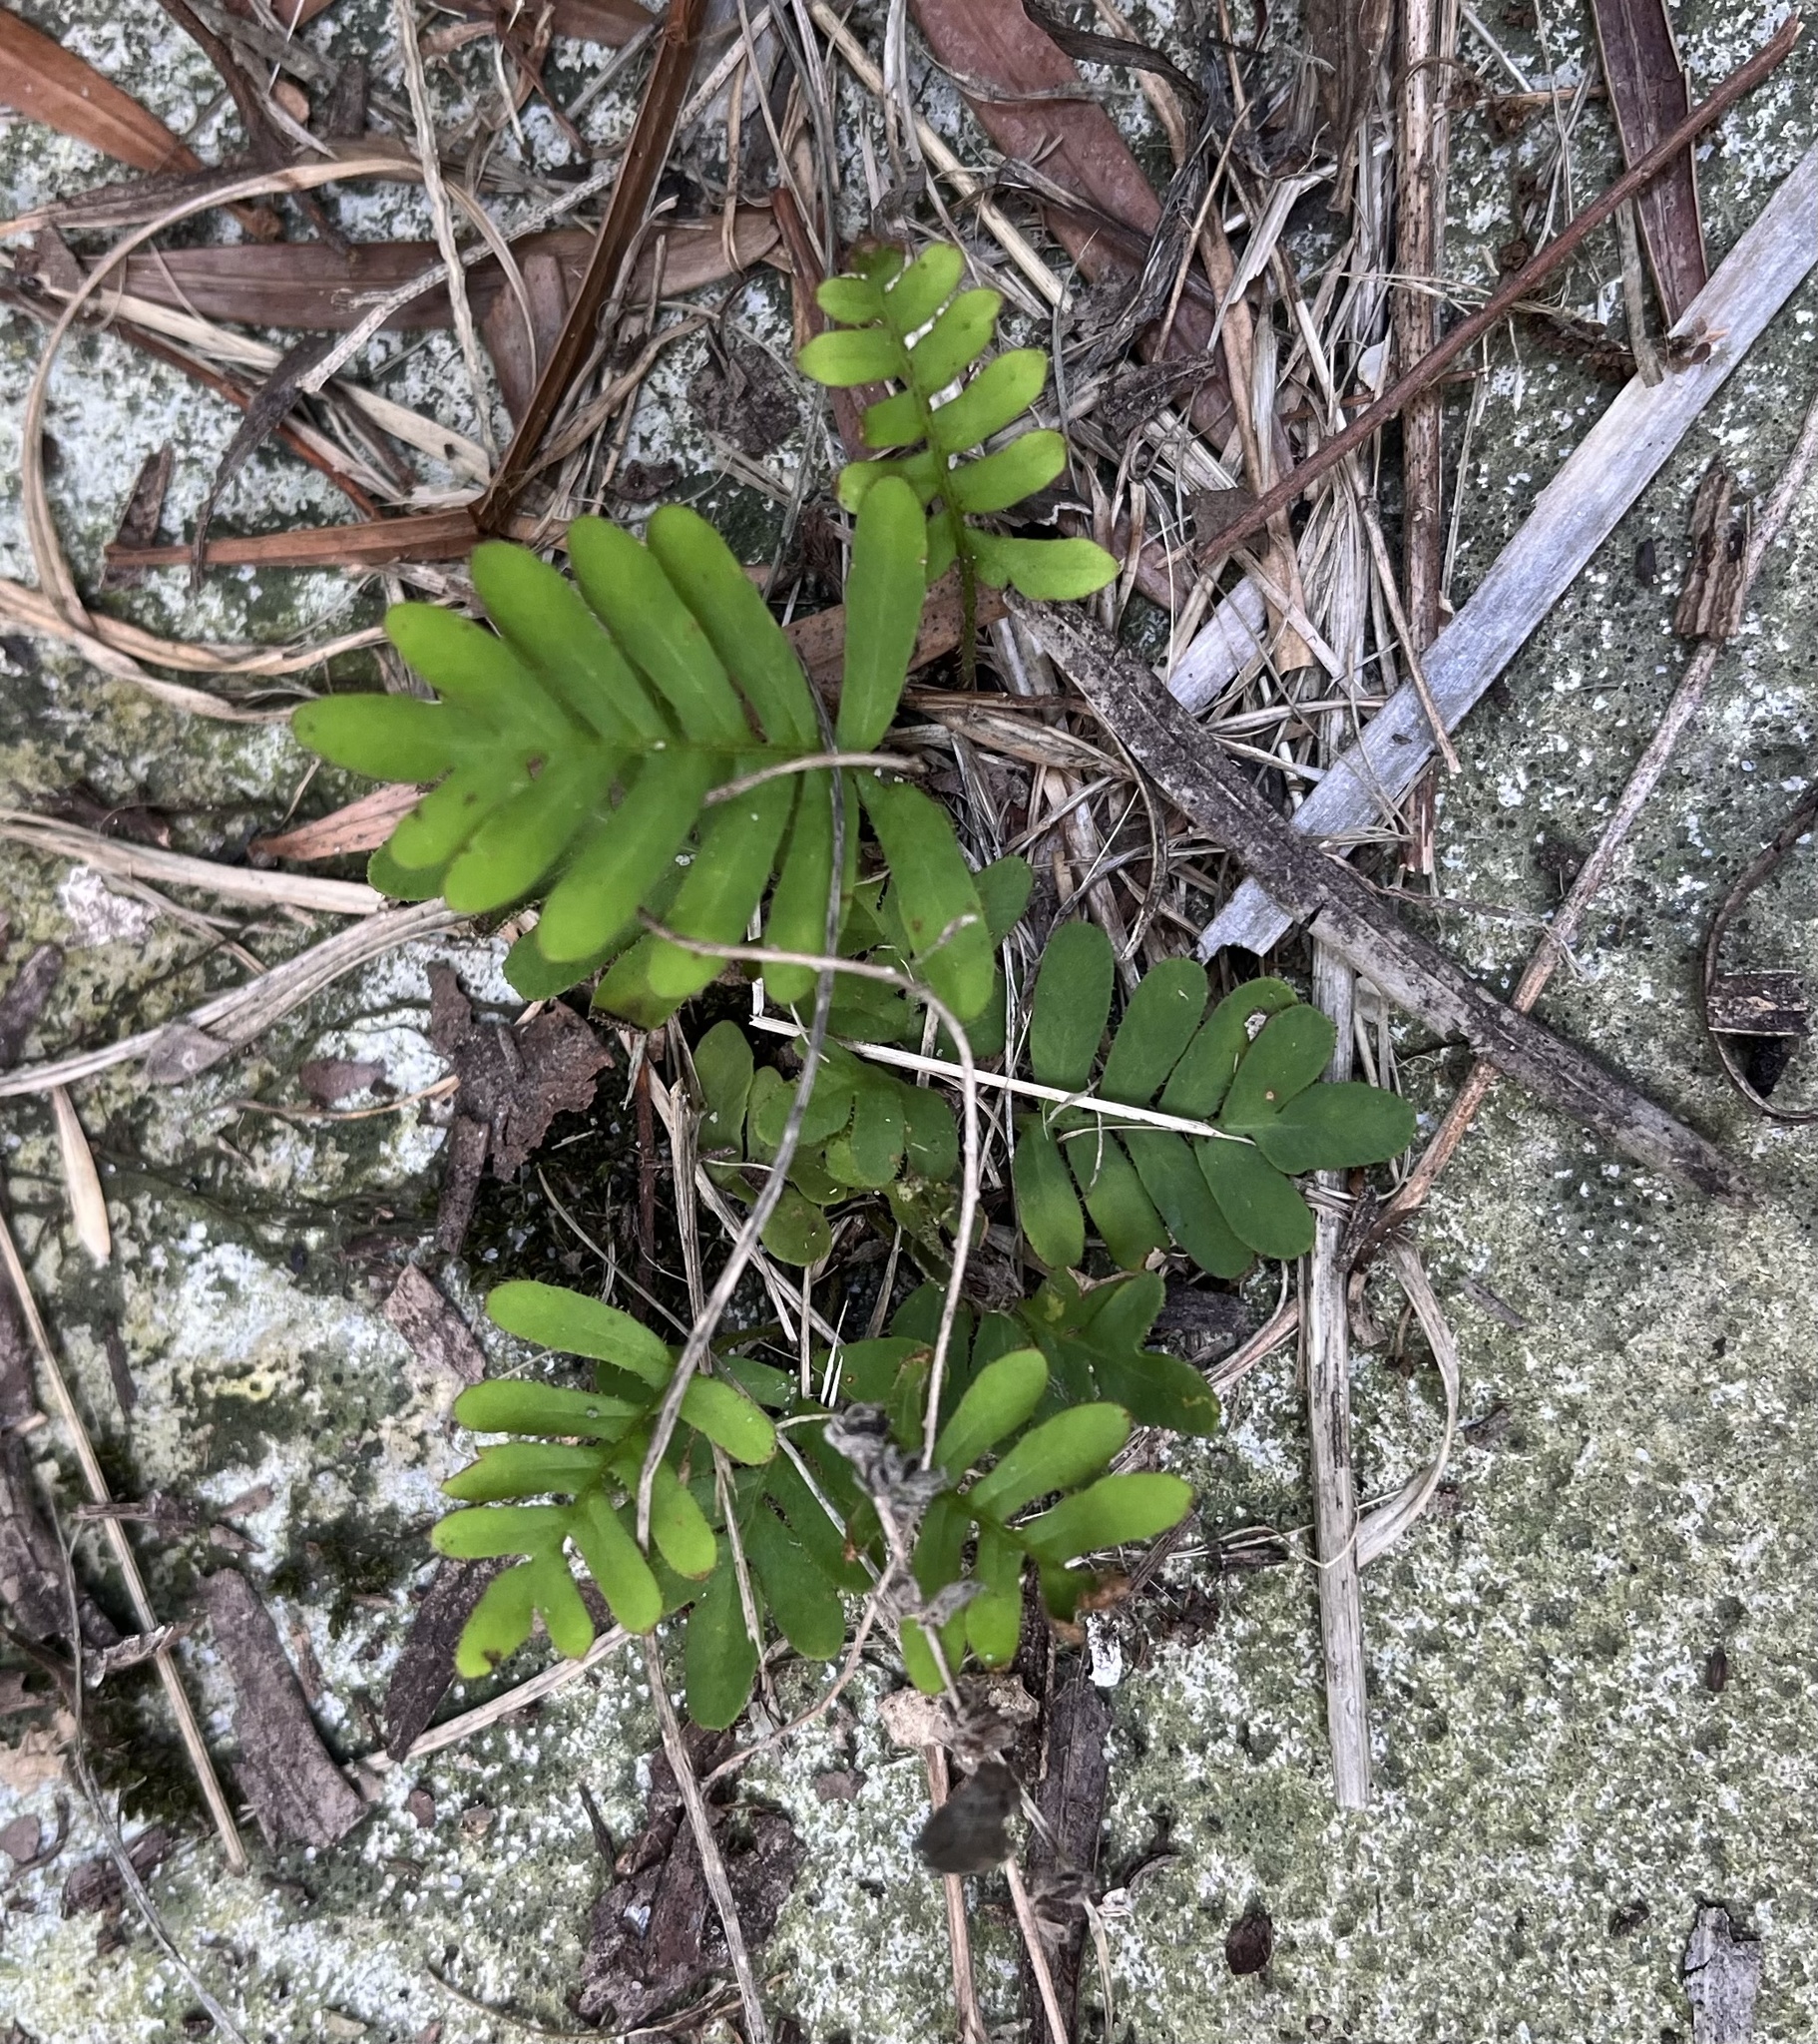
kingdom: Plantae
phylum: Tracheophyta
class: Polypodiopsida
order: Polypodiales
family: Polypodiaceae
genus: Pleopeltis
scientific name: Pleopeltis michauxiana
